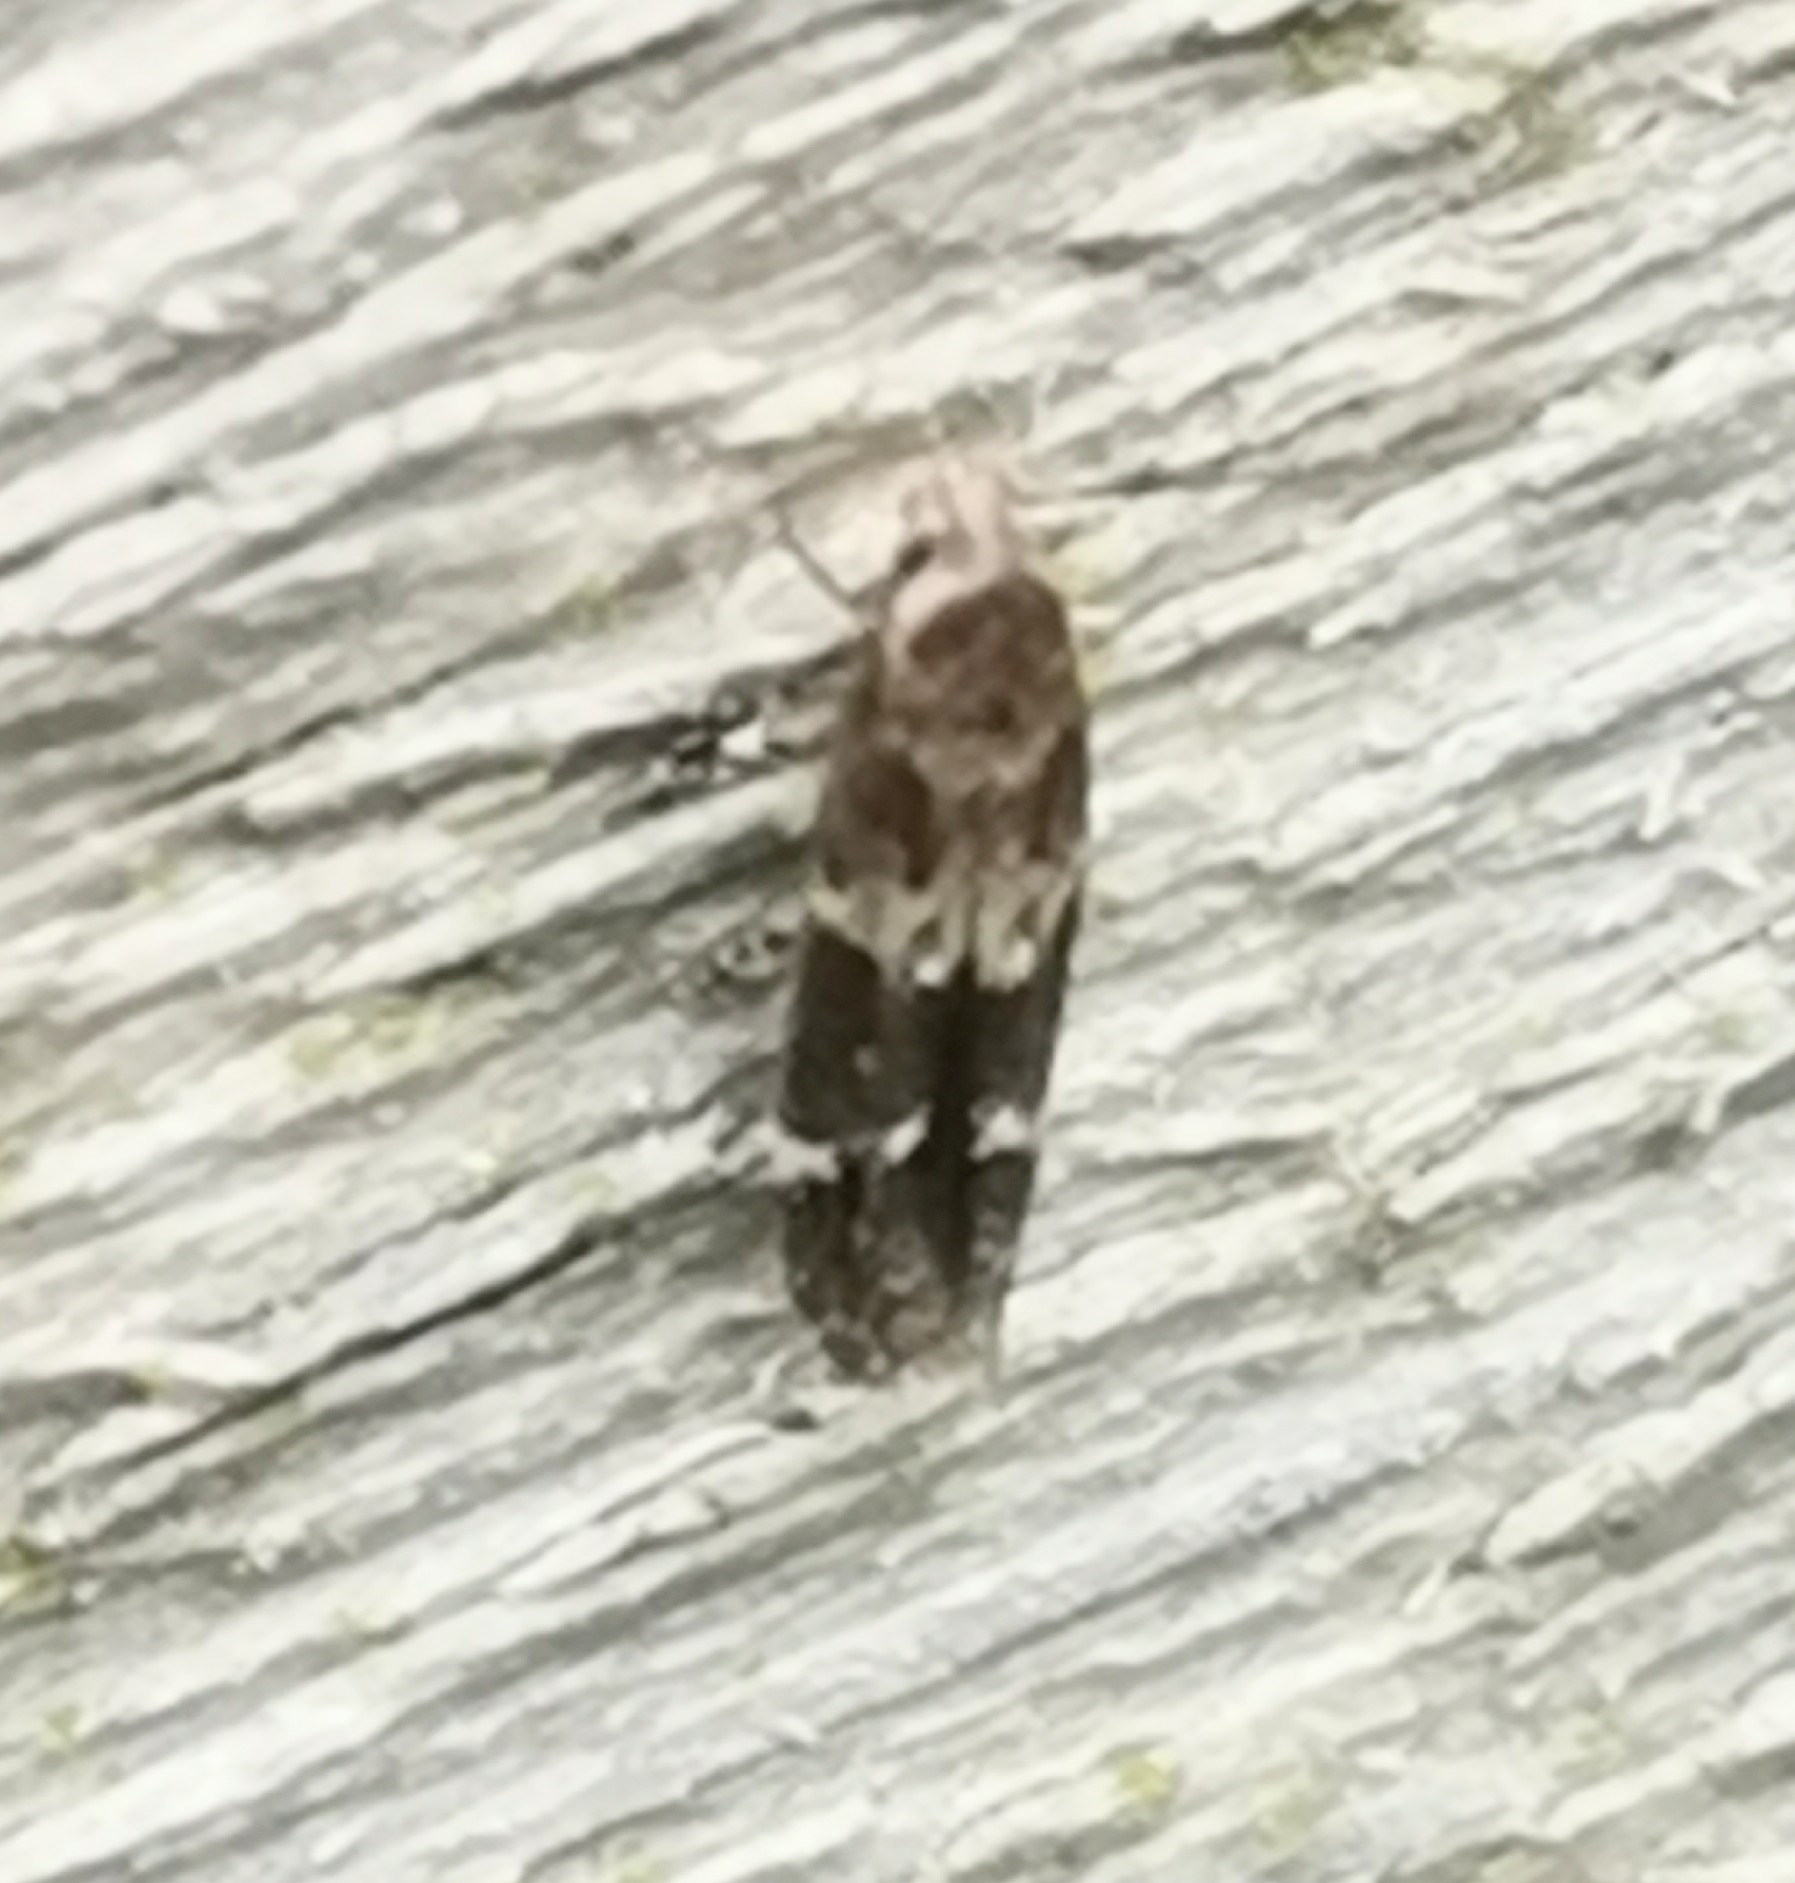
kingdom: Animalia
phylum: Arthropoda
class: Insecta
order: Lepidoptera
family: Momphidae
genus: Mompha
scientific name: Mompha subbistrigella
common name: Garden cosmet
